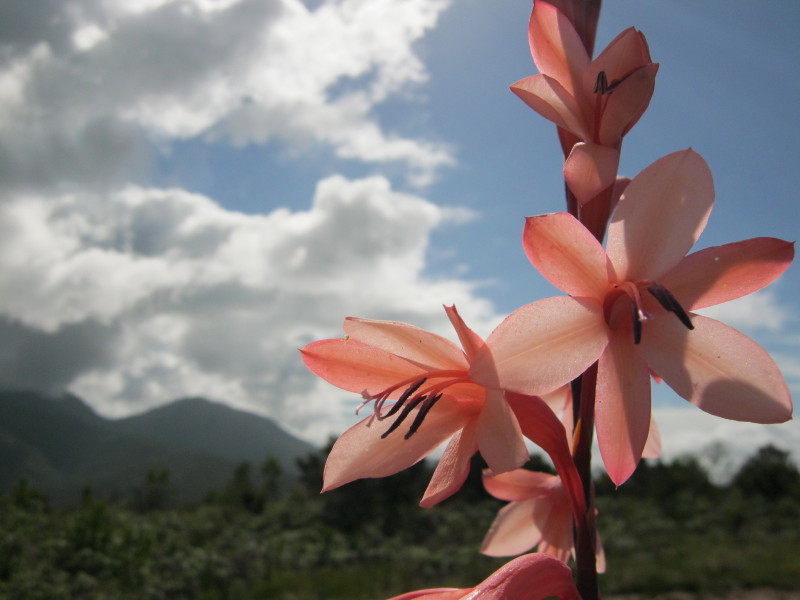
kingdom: Plantae
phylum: Tracheophyta
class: Liliopsida
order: Asparagales
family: Iridaceae
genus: Watsonia
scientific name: Watsonia fourcadei
